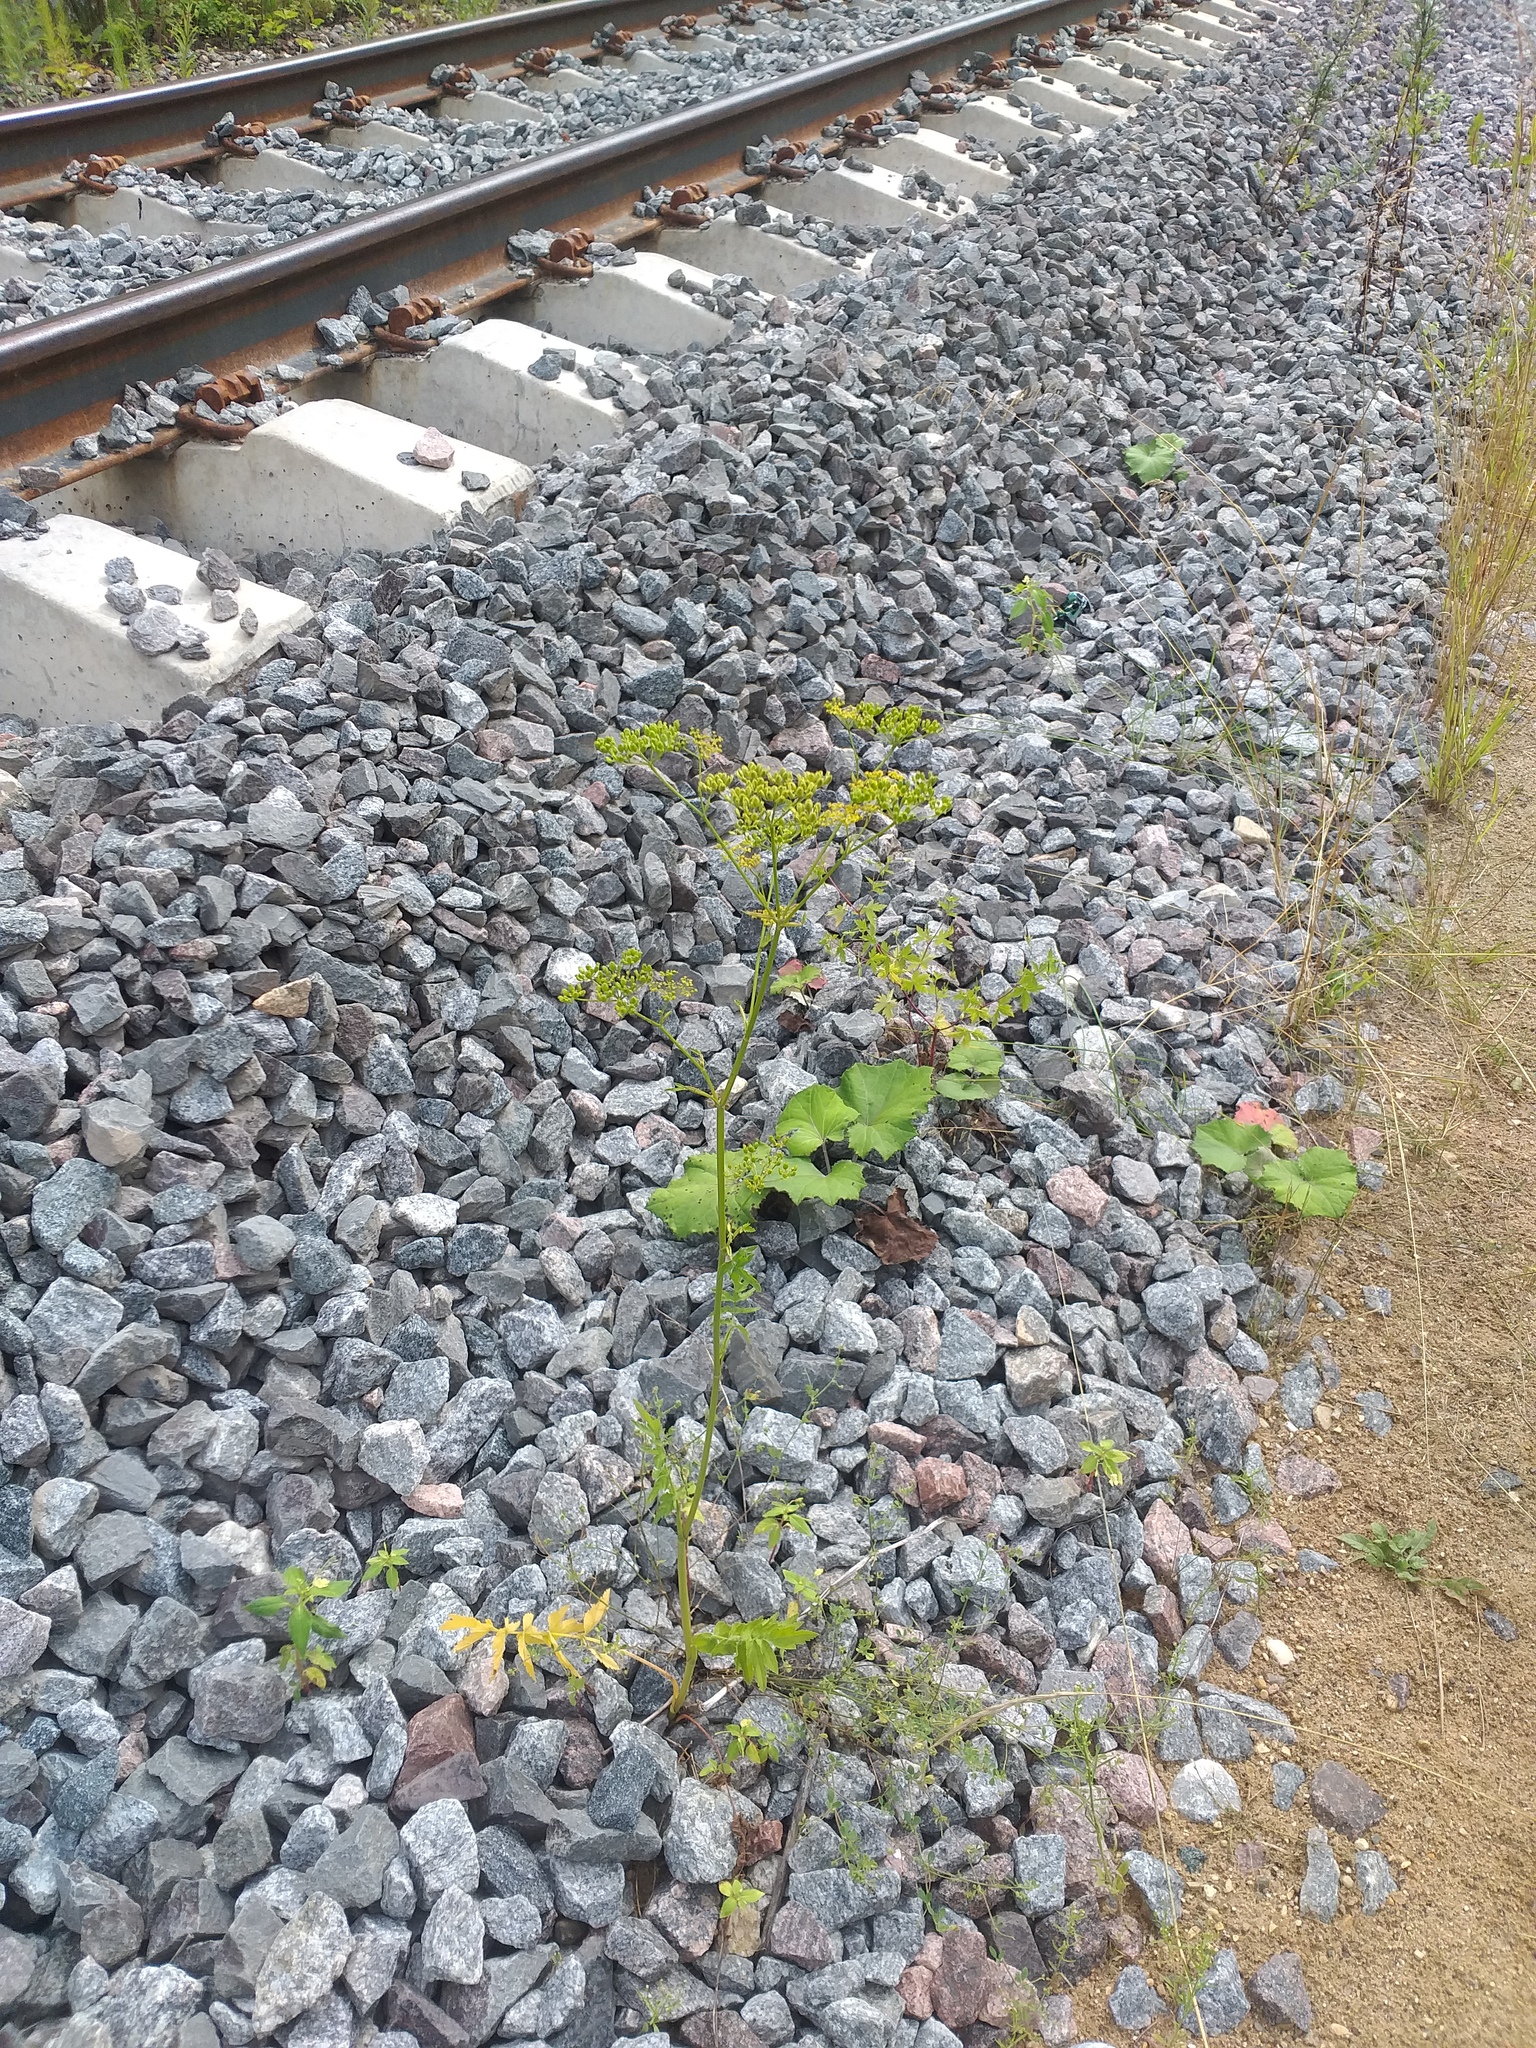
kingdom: Plantae
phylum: Tracheophyta
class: Magnoliopsida
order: Apiales
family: Apiaceae
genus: Pastinaca
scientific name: Pastinaca sativa
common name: Wild parsnip
